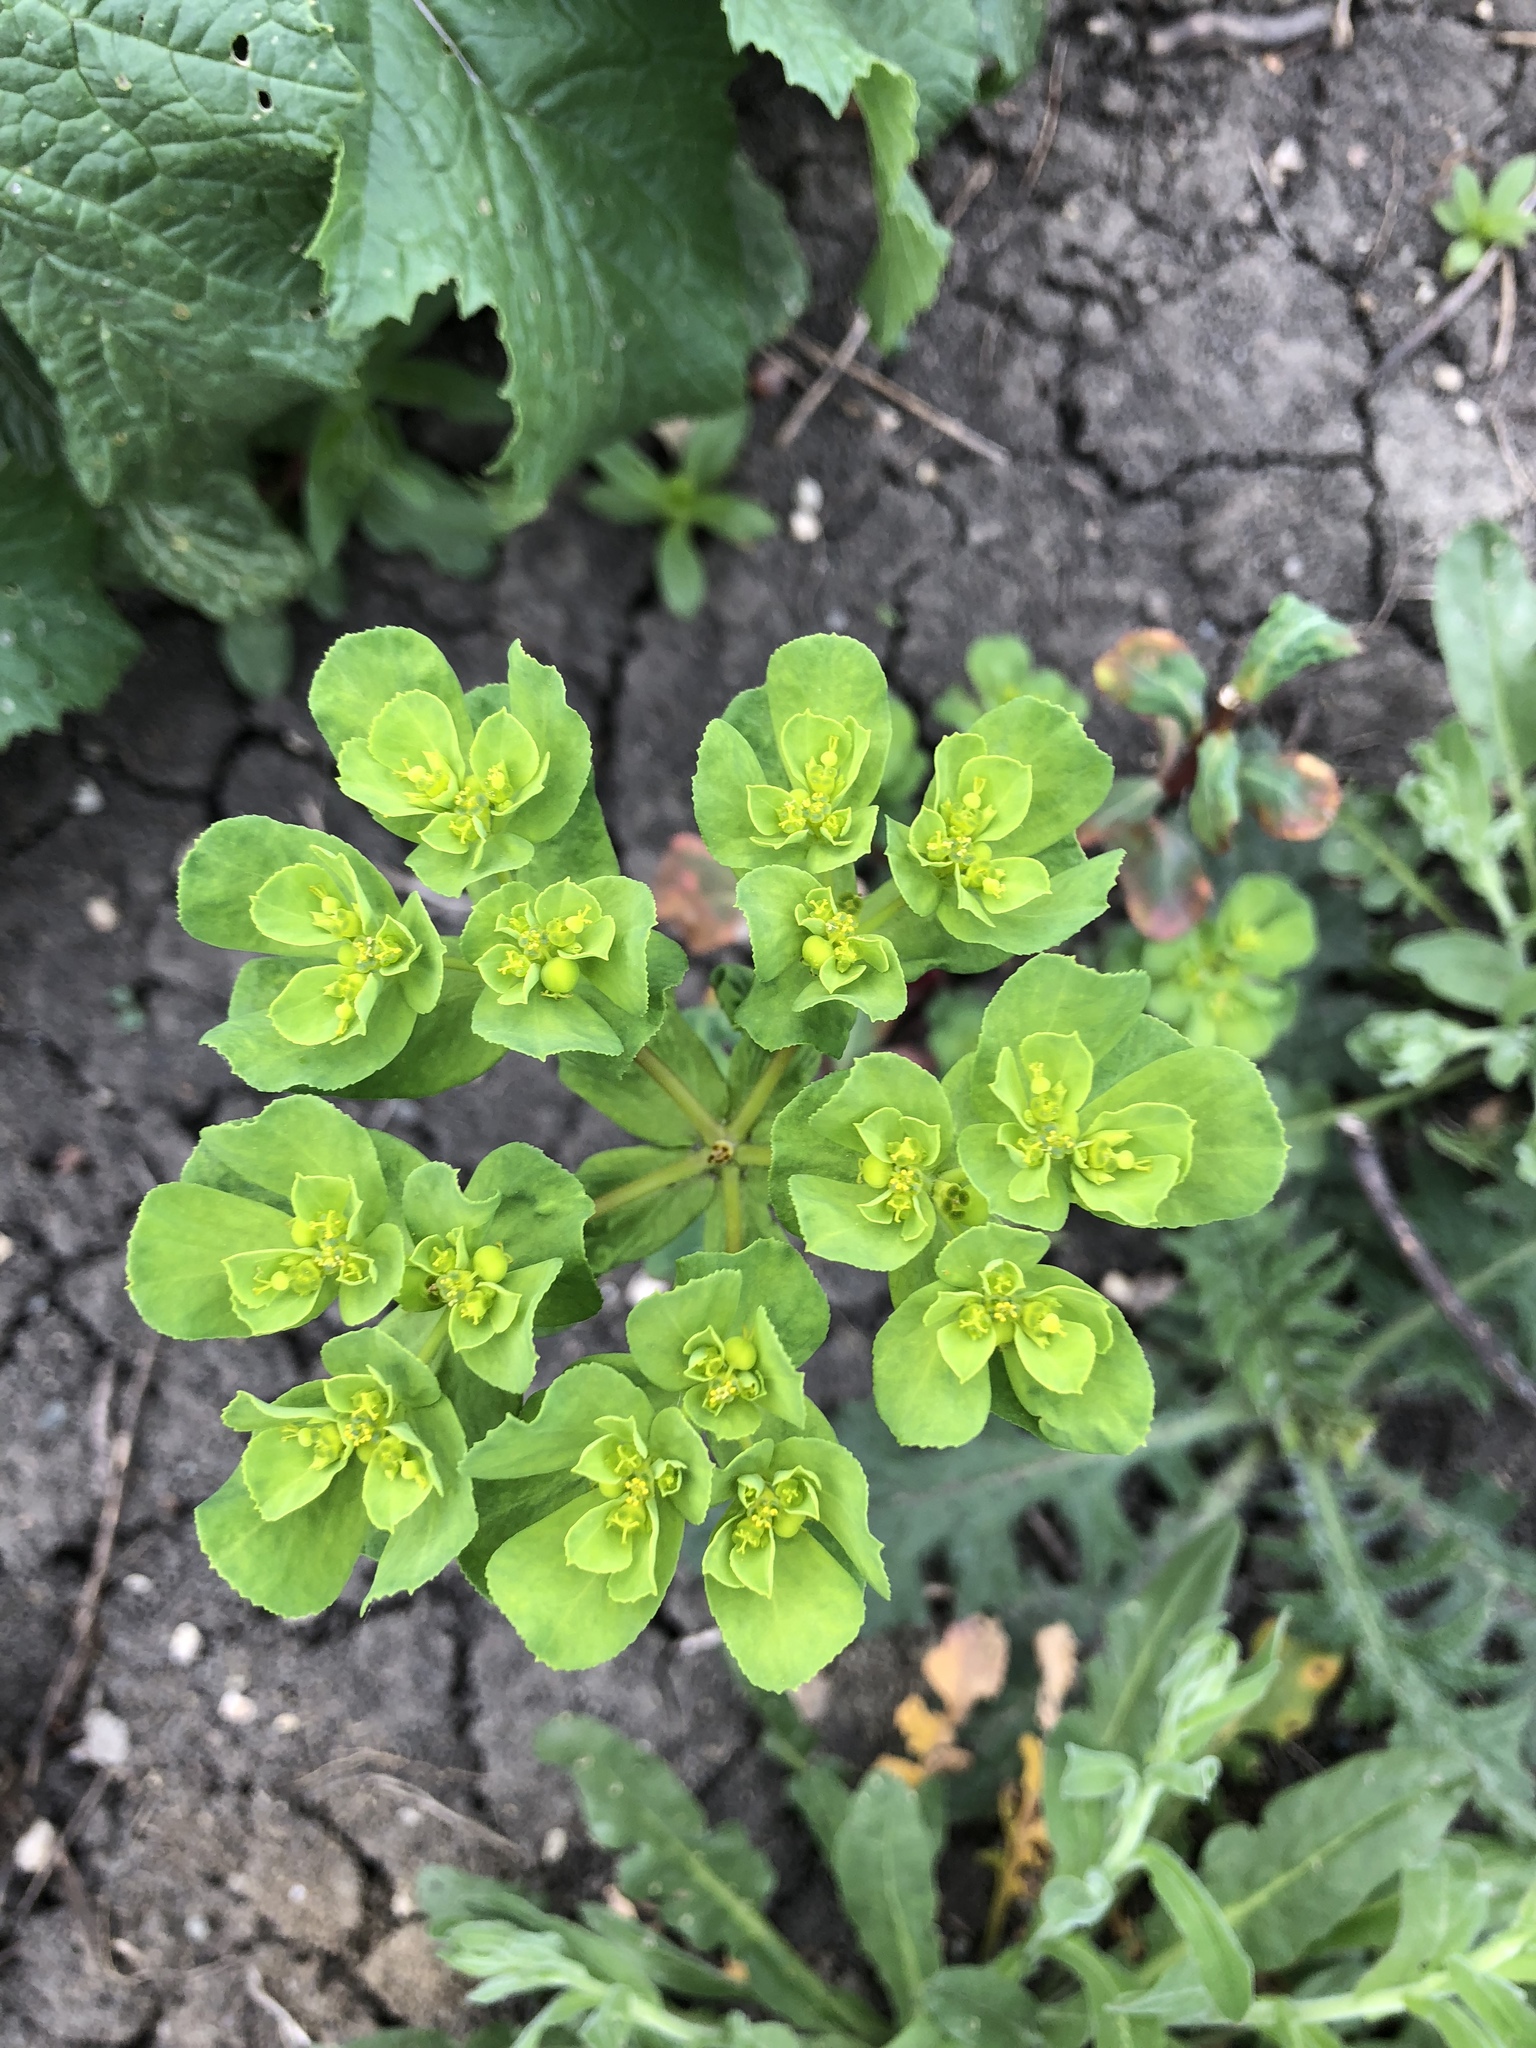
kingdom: Plantae
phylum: Tracheophyta
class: Magnoliopsida
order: Malpighiales
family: Euphorbiaceae
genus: Euphorbia
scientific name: Euphorbia helioscopia
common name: Sun spurge
